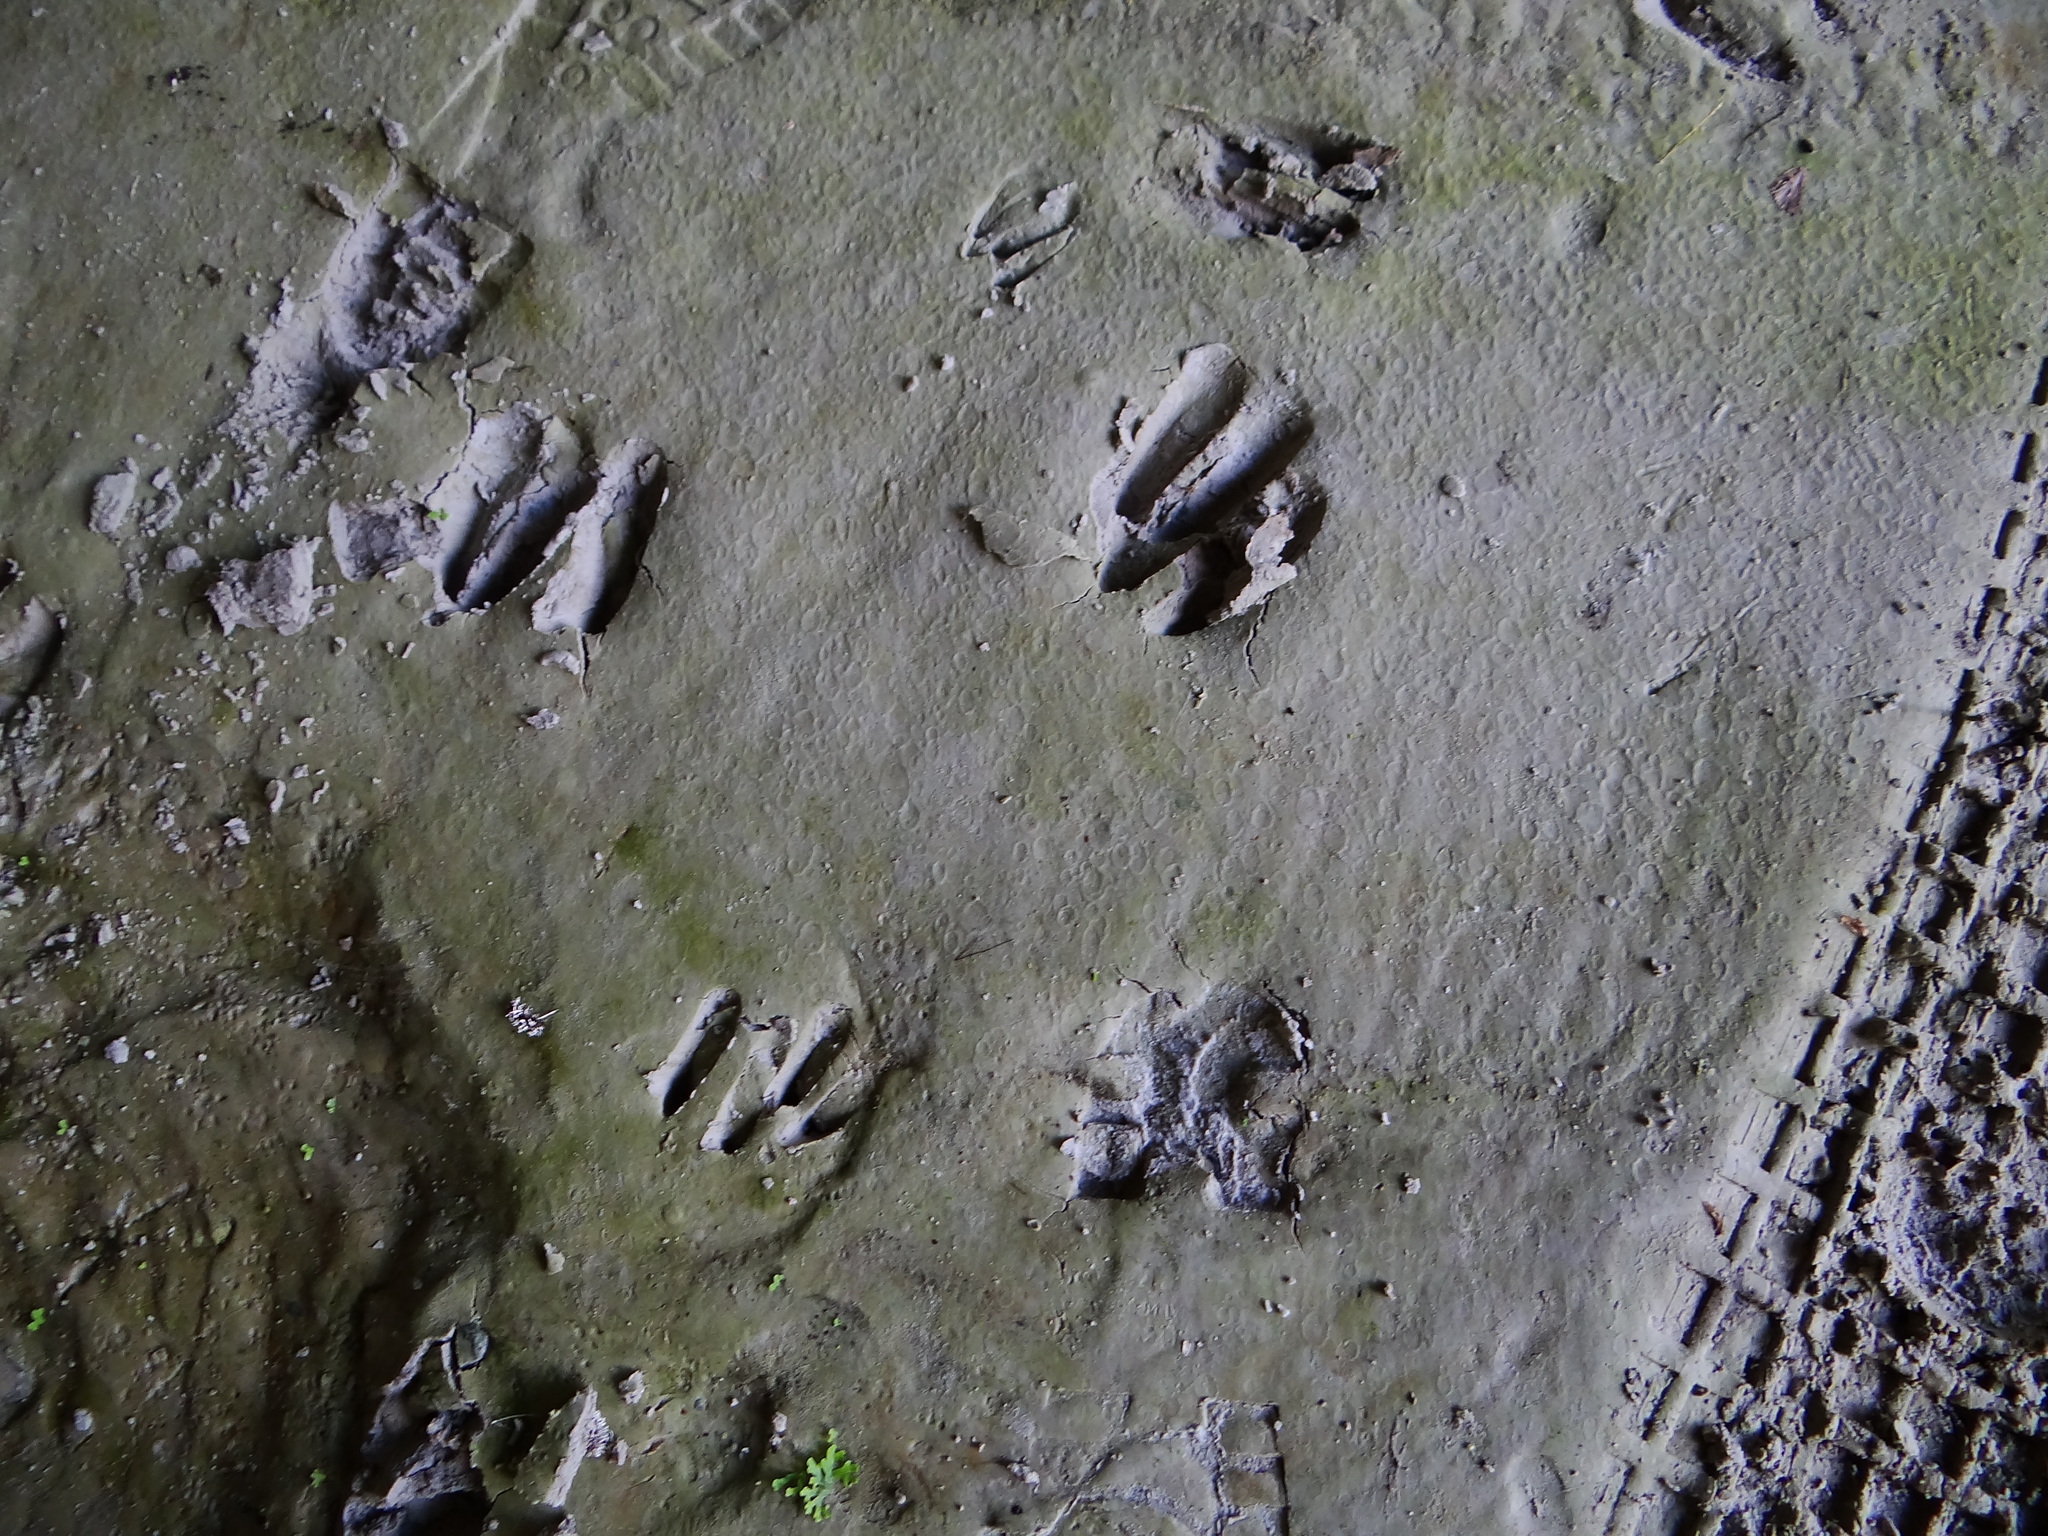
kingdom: Animalia
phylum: Chordata
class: Mammalia
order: Artiodactyla
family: Bovidae
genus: Capricornis
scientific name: Capricornis swinhoei
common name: Formosan serow
